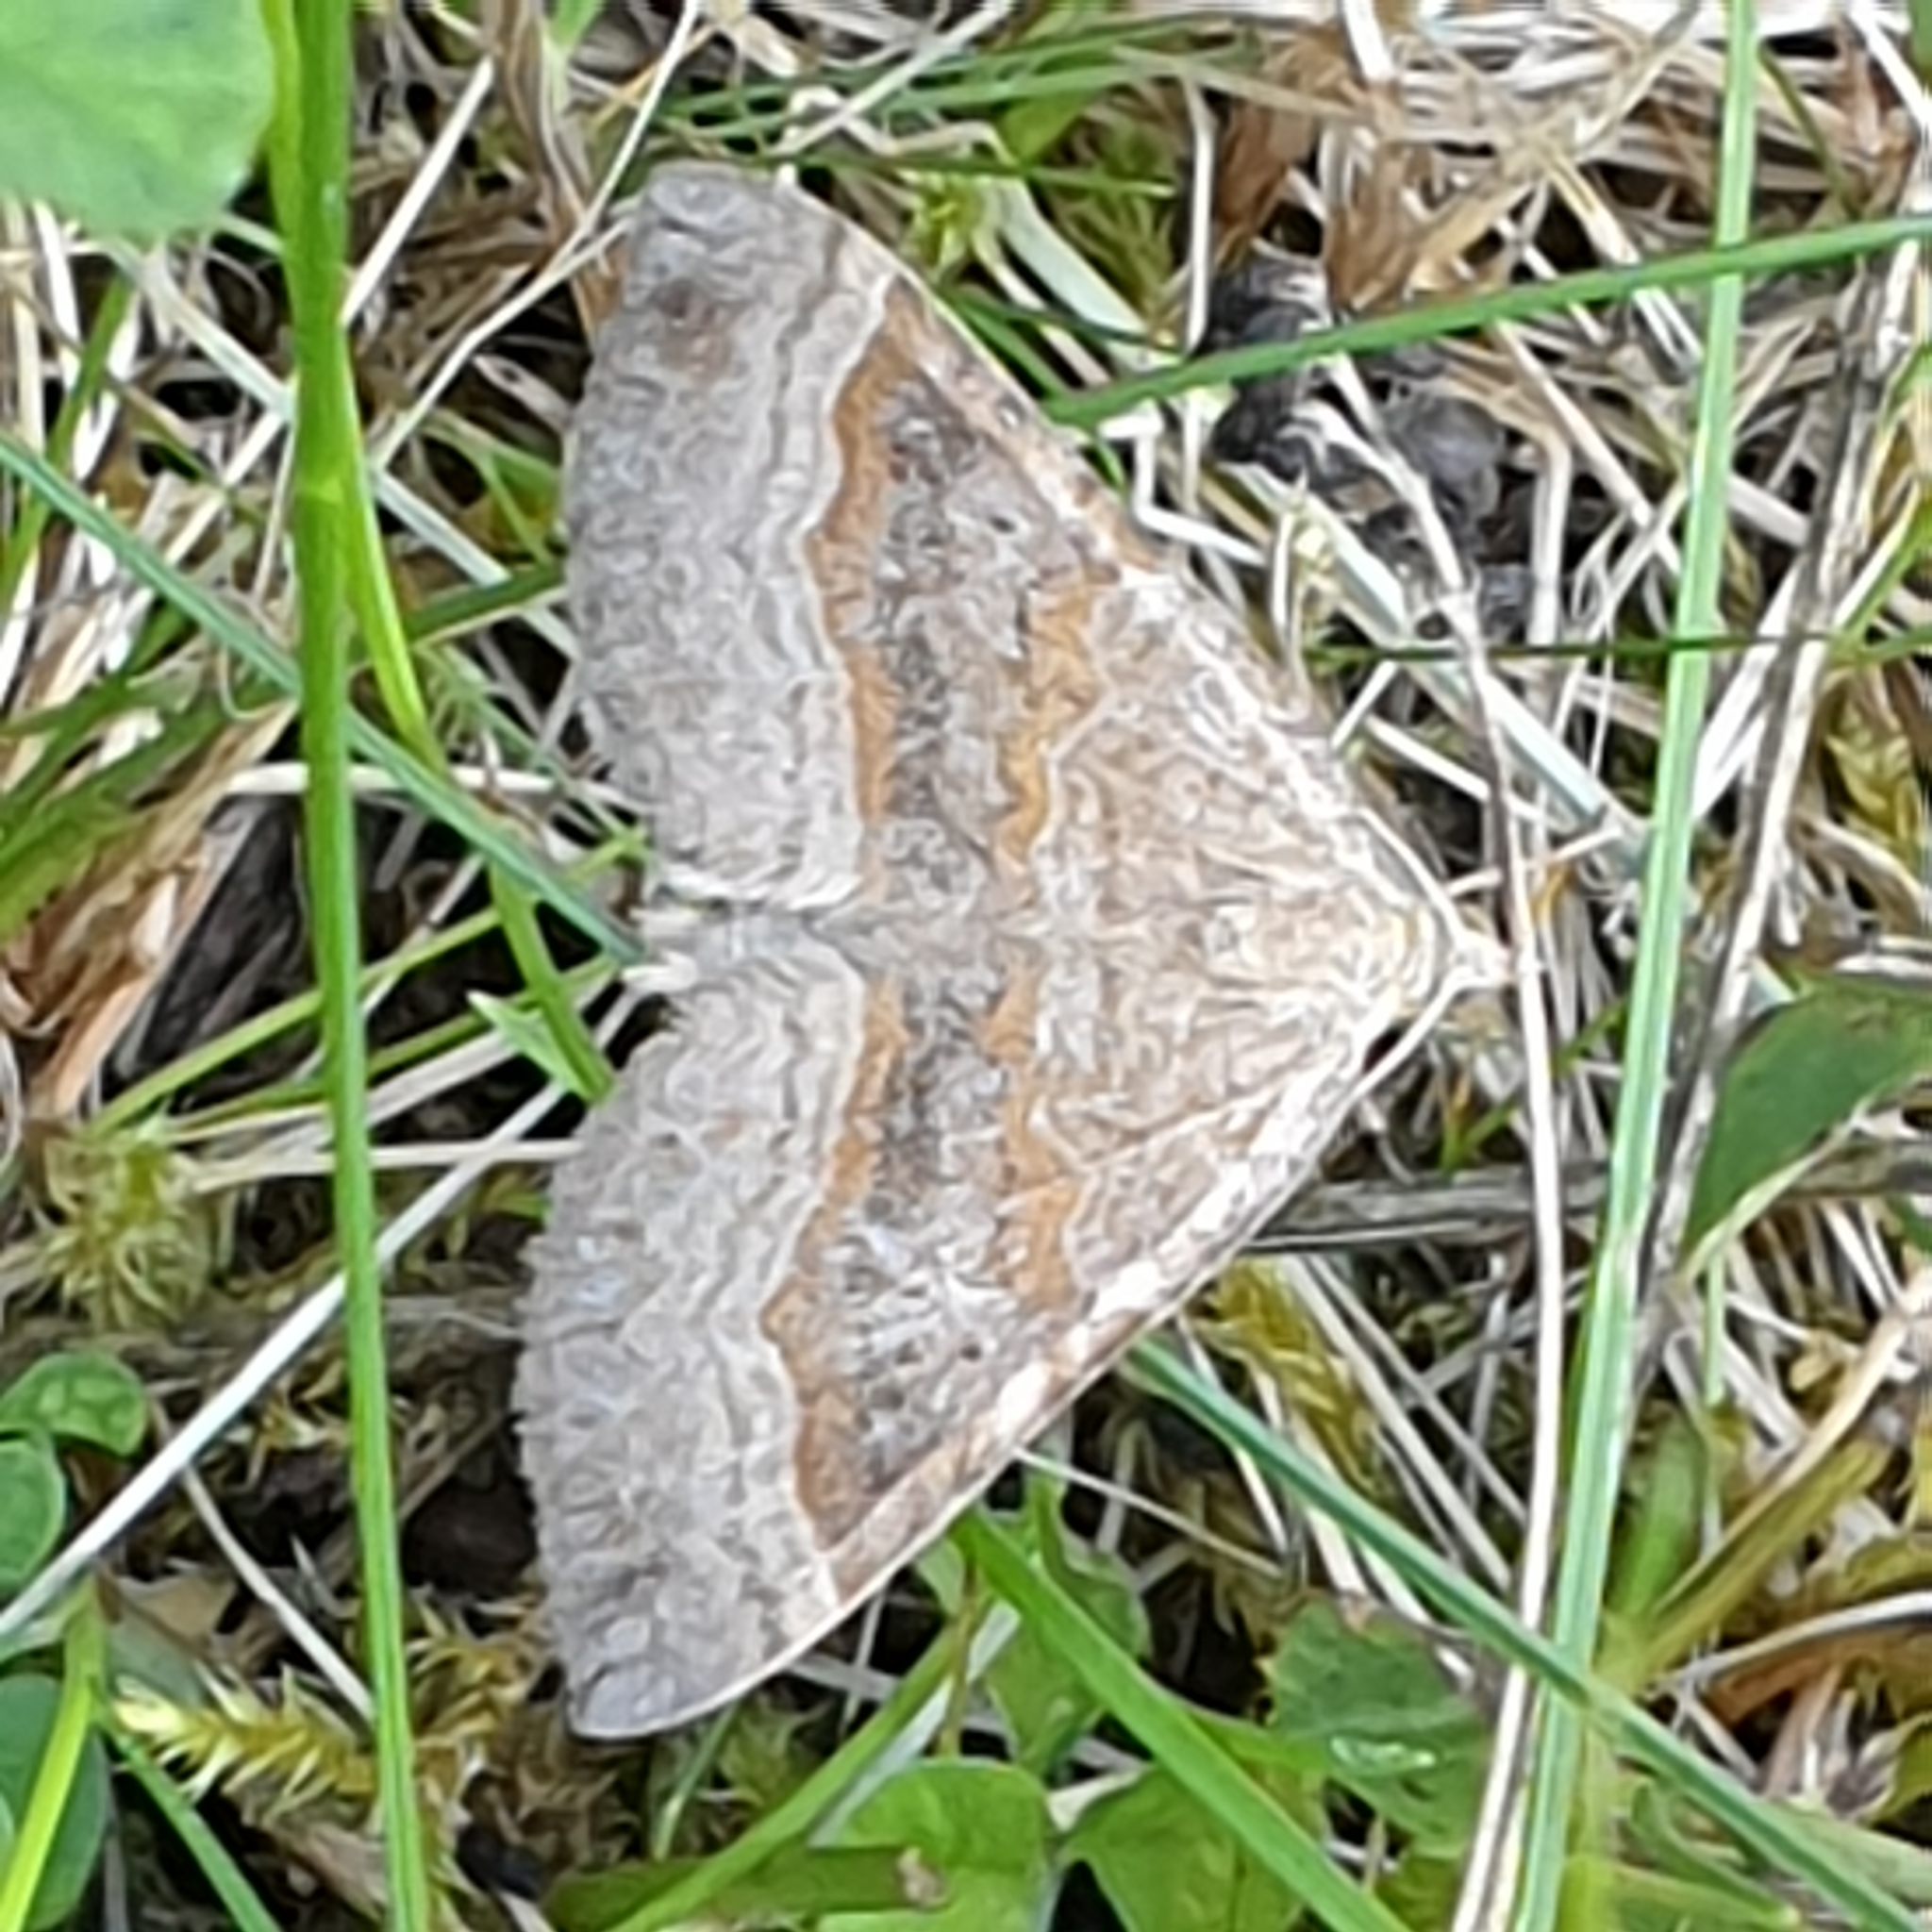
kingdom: Animalia
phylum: Arthropoda
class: Insecta
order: Lepidoptera
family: Geometridae
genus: Scotopteryx
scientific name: Scotopteryx chenopodiata
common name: Shaded broad-bar
